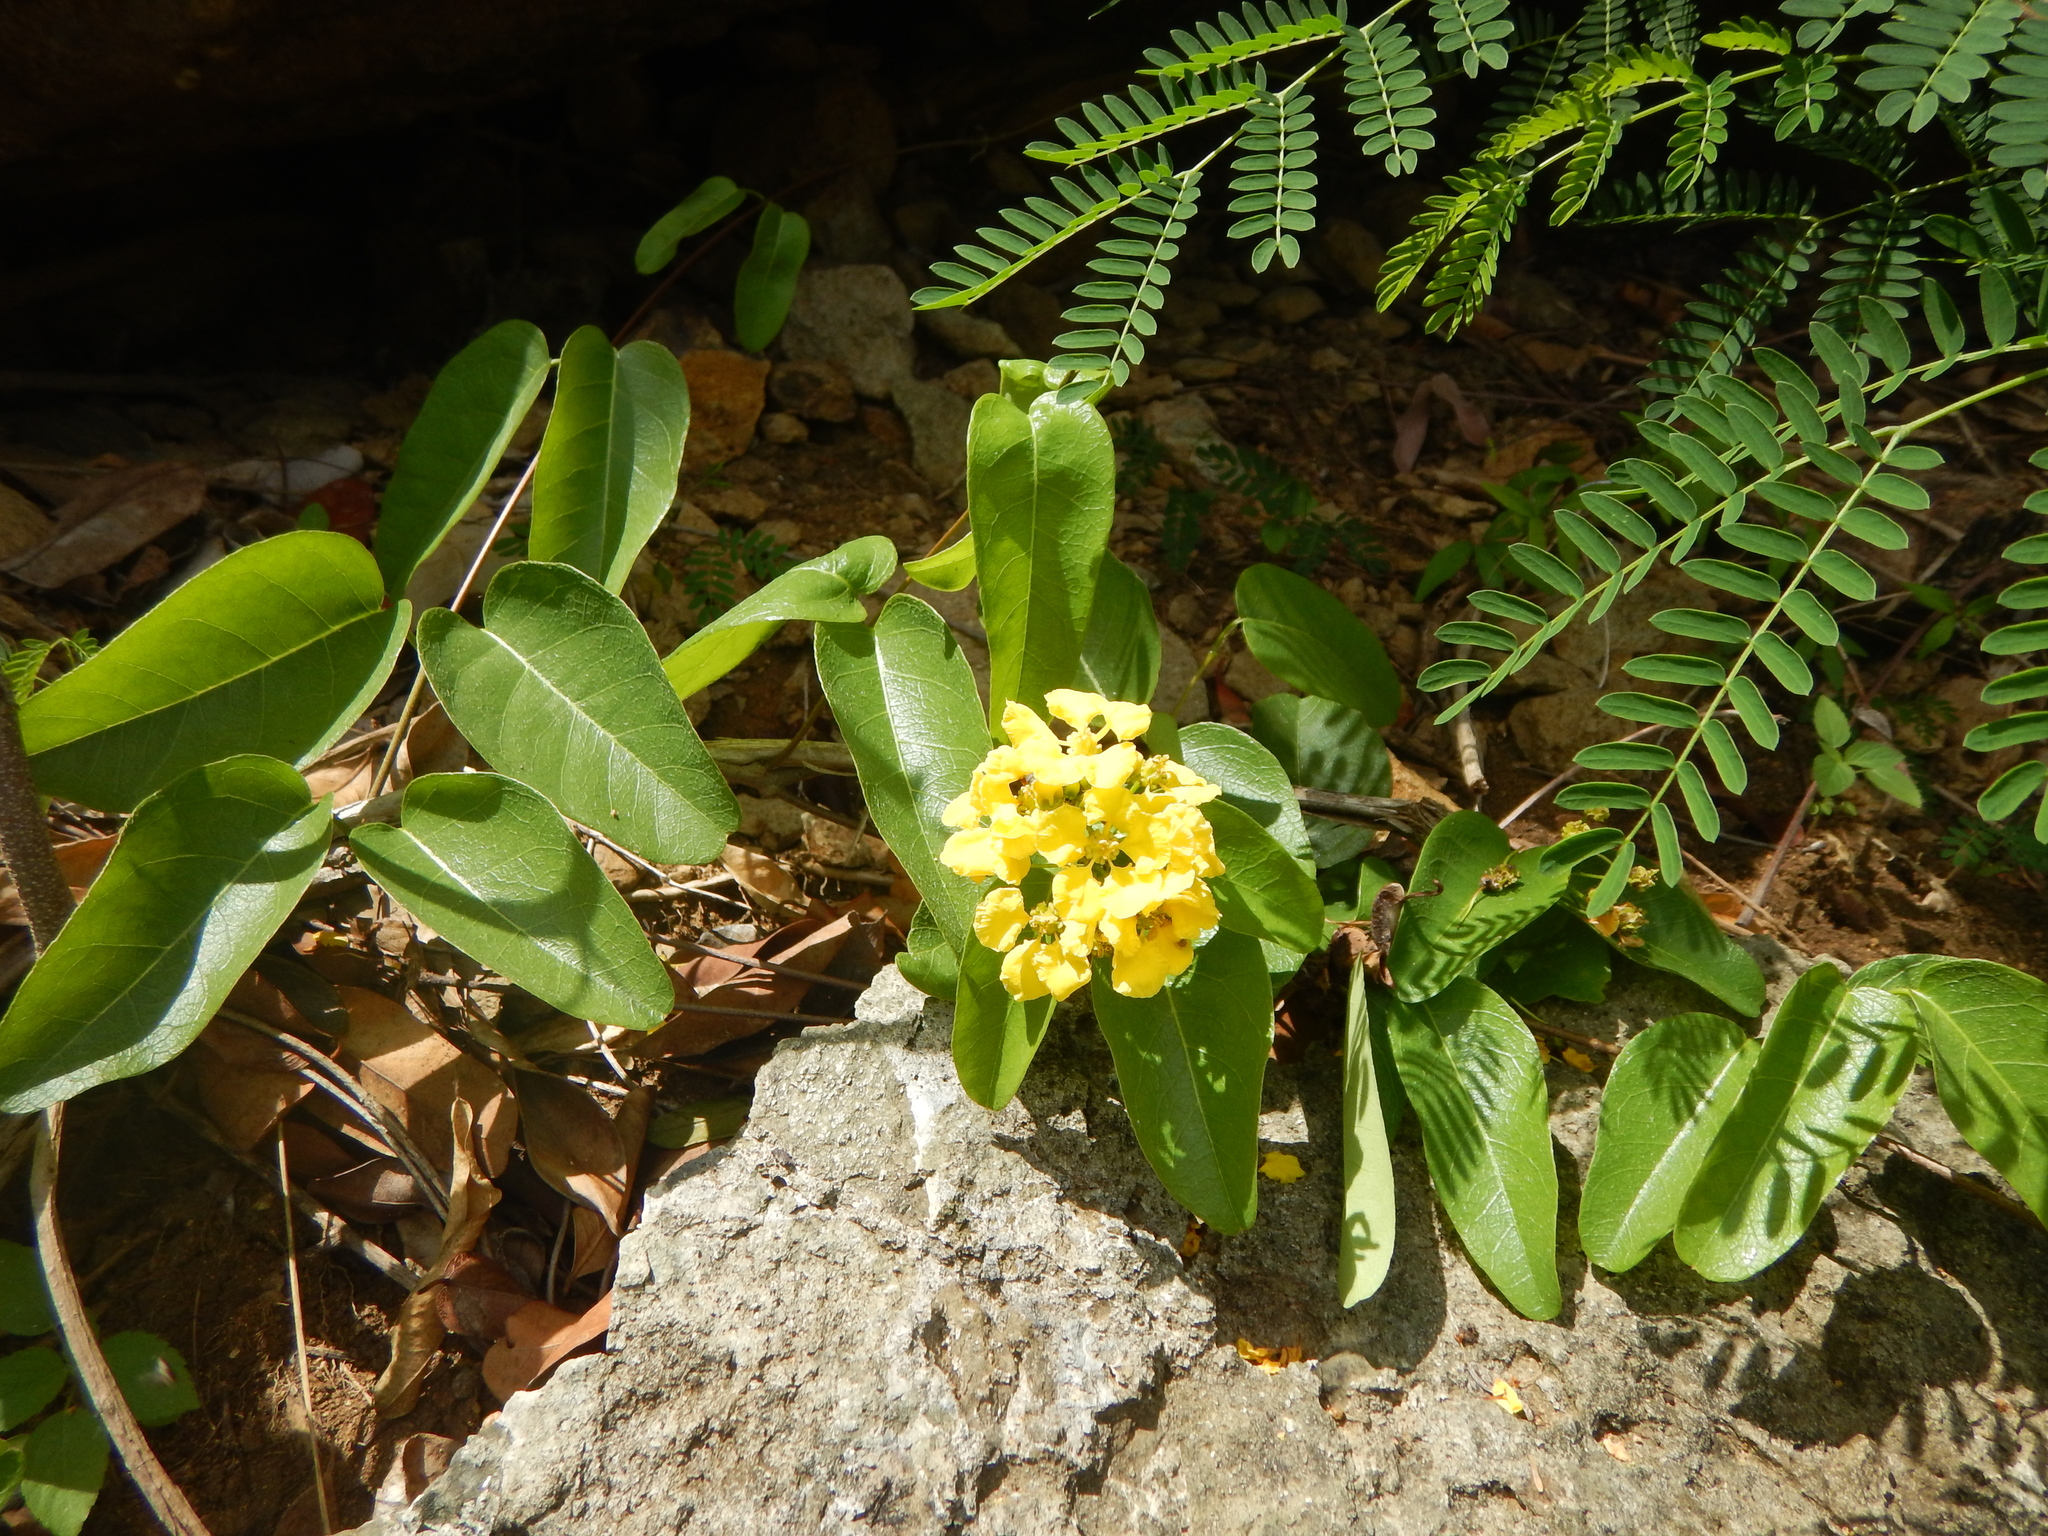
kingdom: Plantae
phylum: Tracheophyta
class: Magnoliopsida
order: Malpighiales
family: Malpighiaceae
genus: Stigmaphyllon
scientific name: Stigmaphyllon emarginatum
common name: Monarch amazonvine
